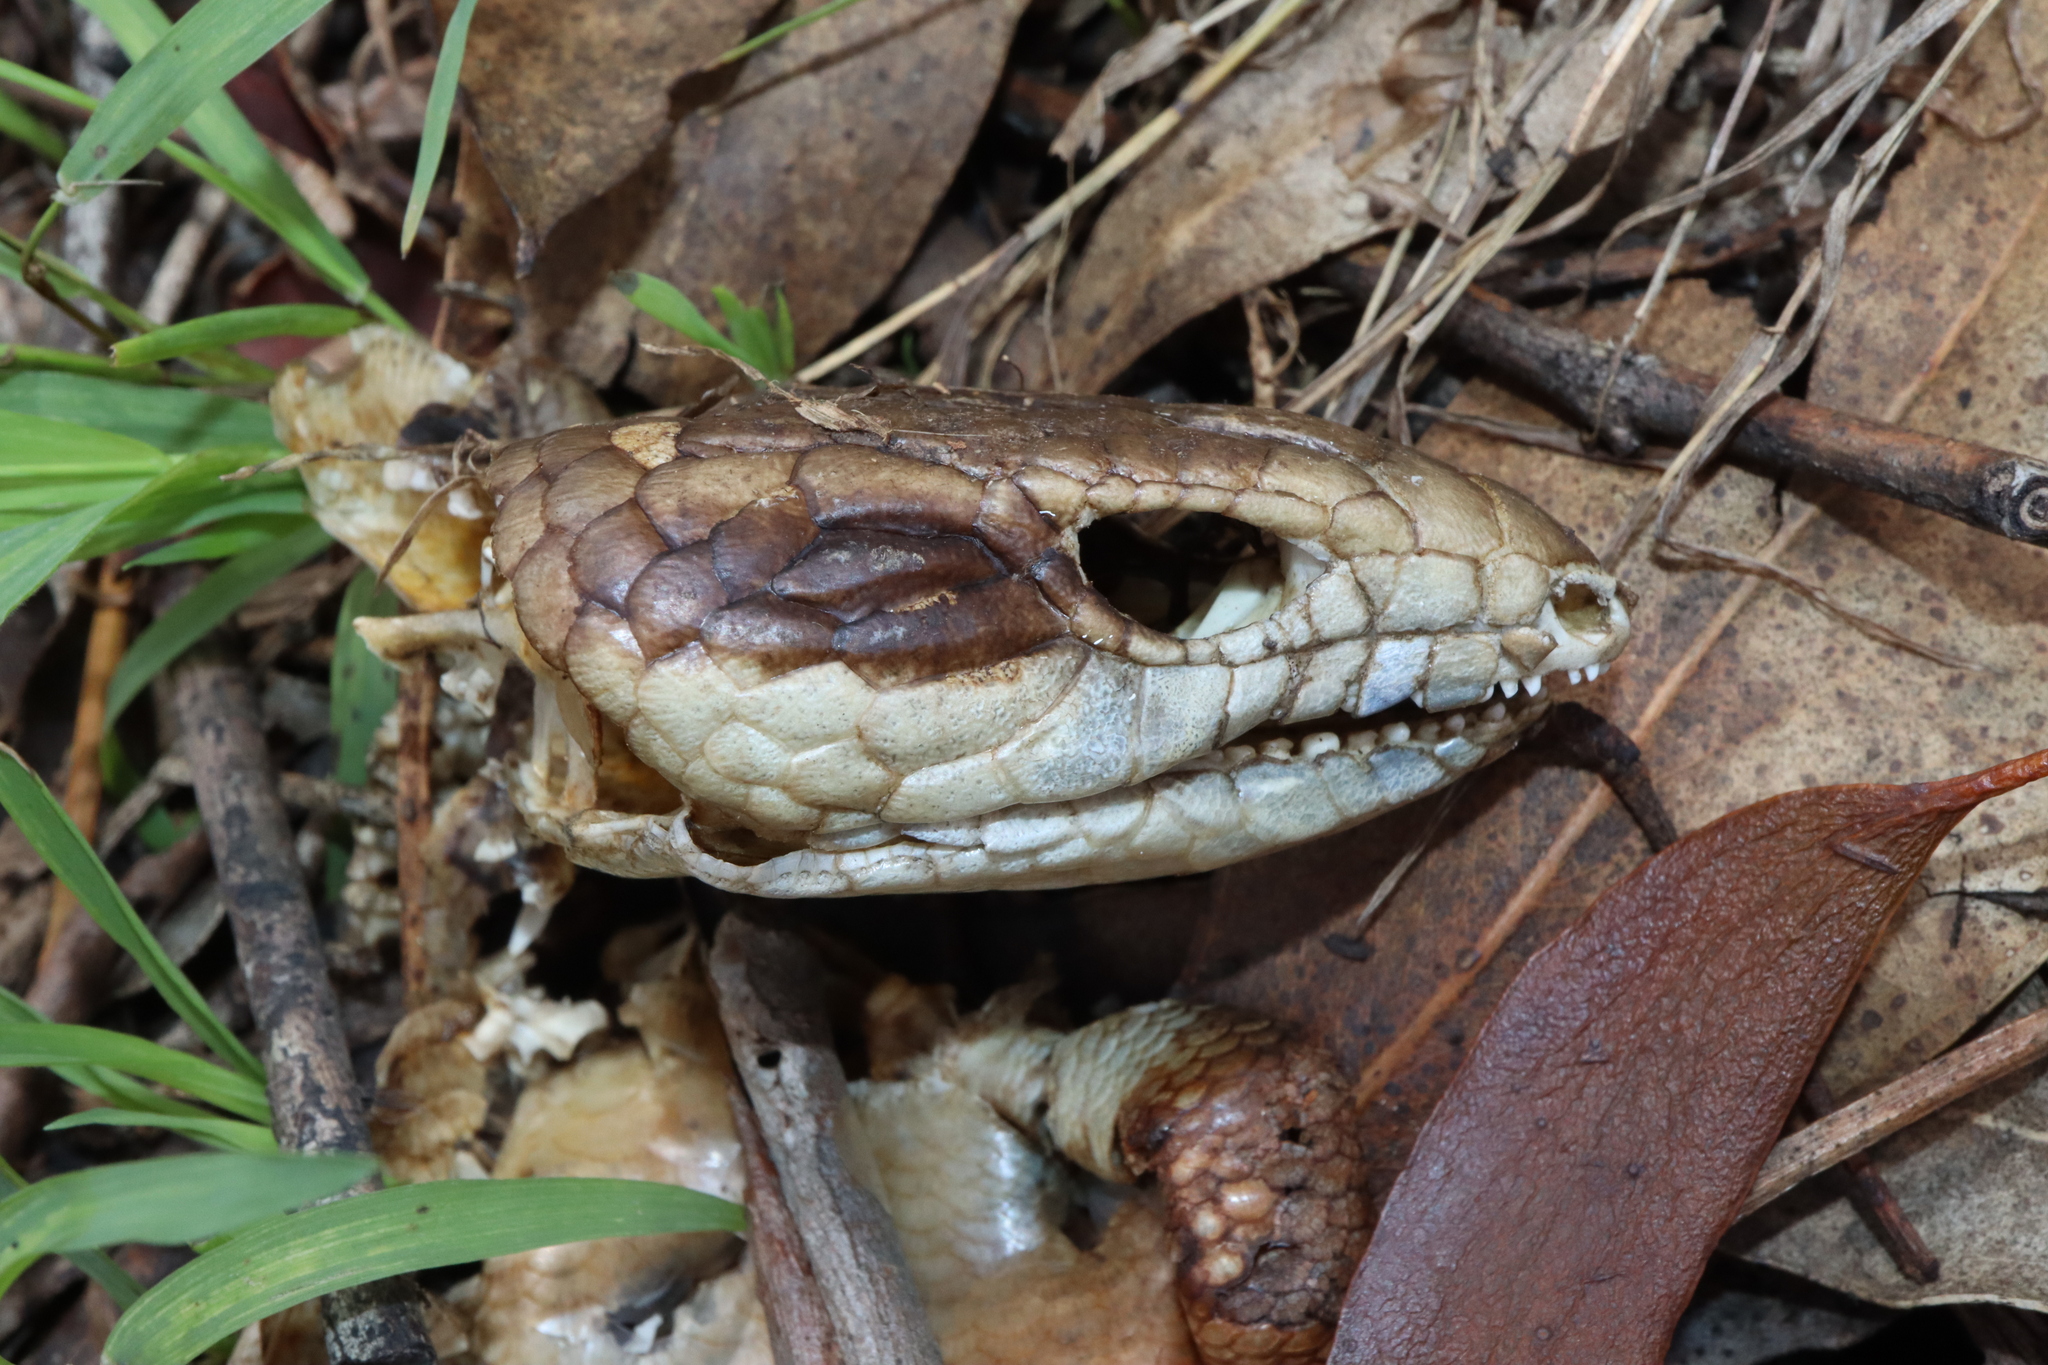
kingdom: Animalia
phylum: Chordata
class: Squamata
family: Scincidae
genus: Tiliqua
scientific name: Tiliqua scincoides
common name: Common bluetongue
